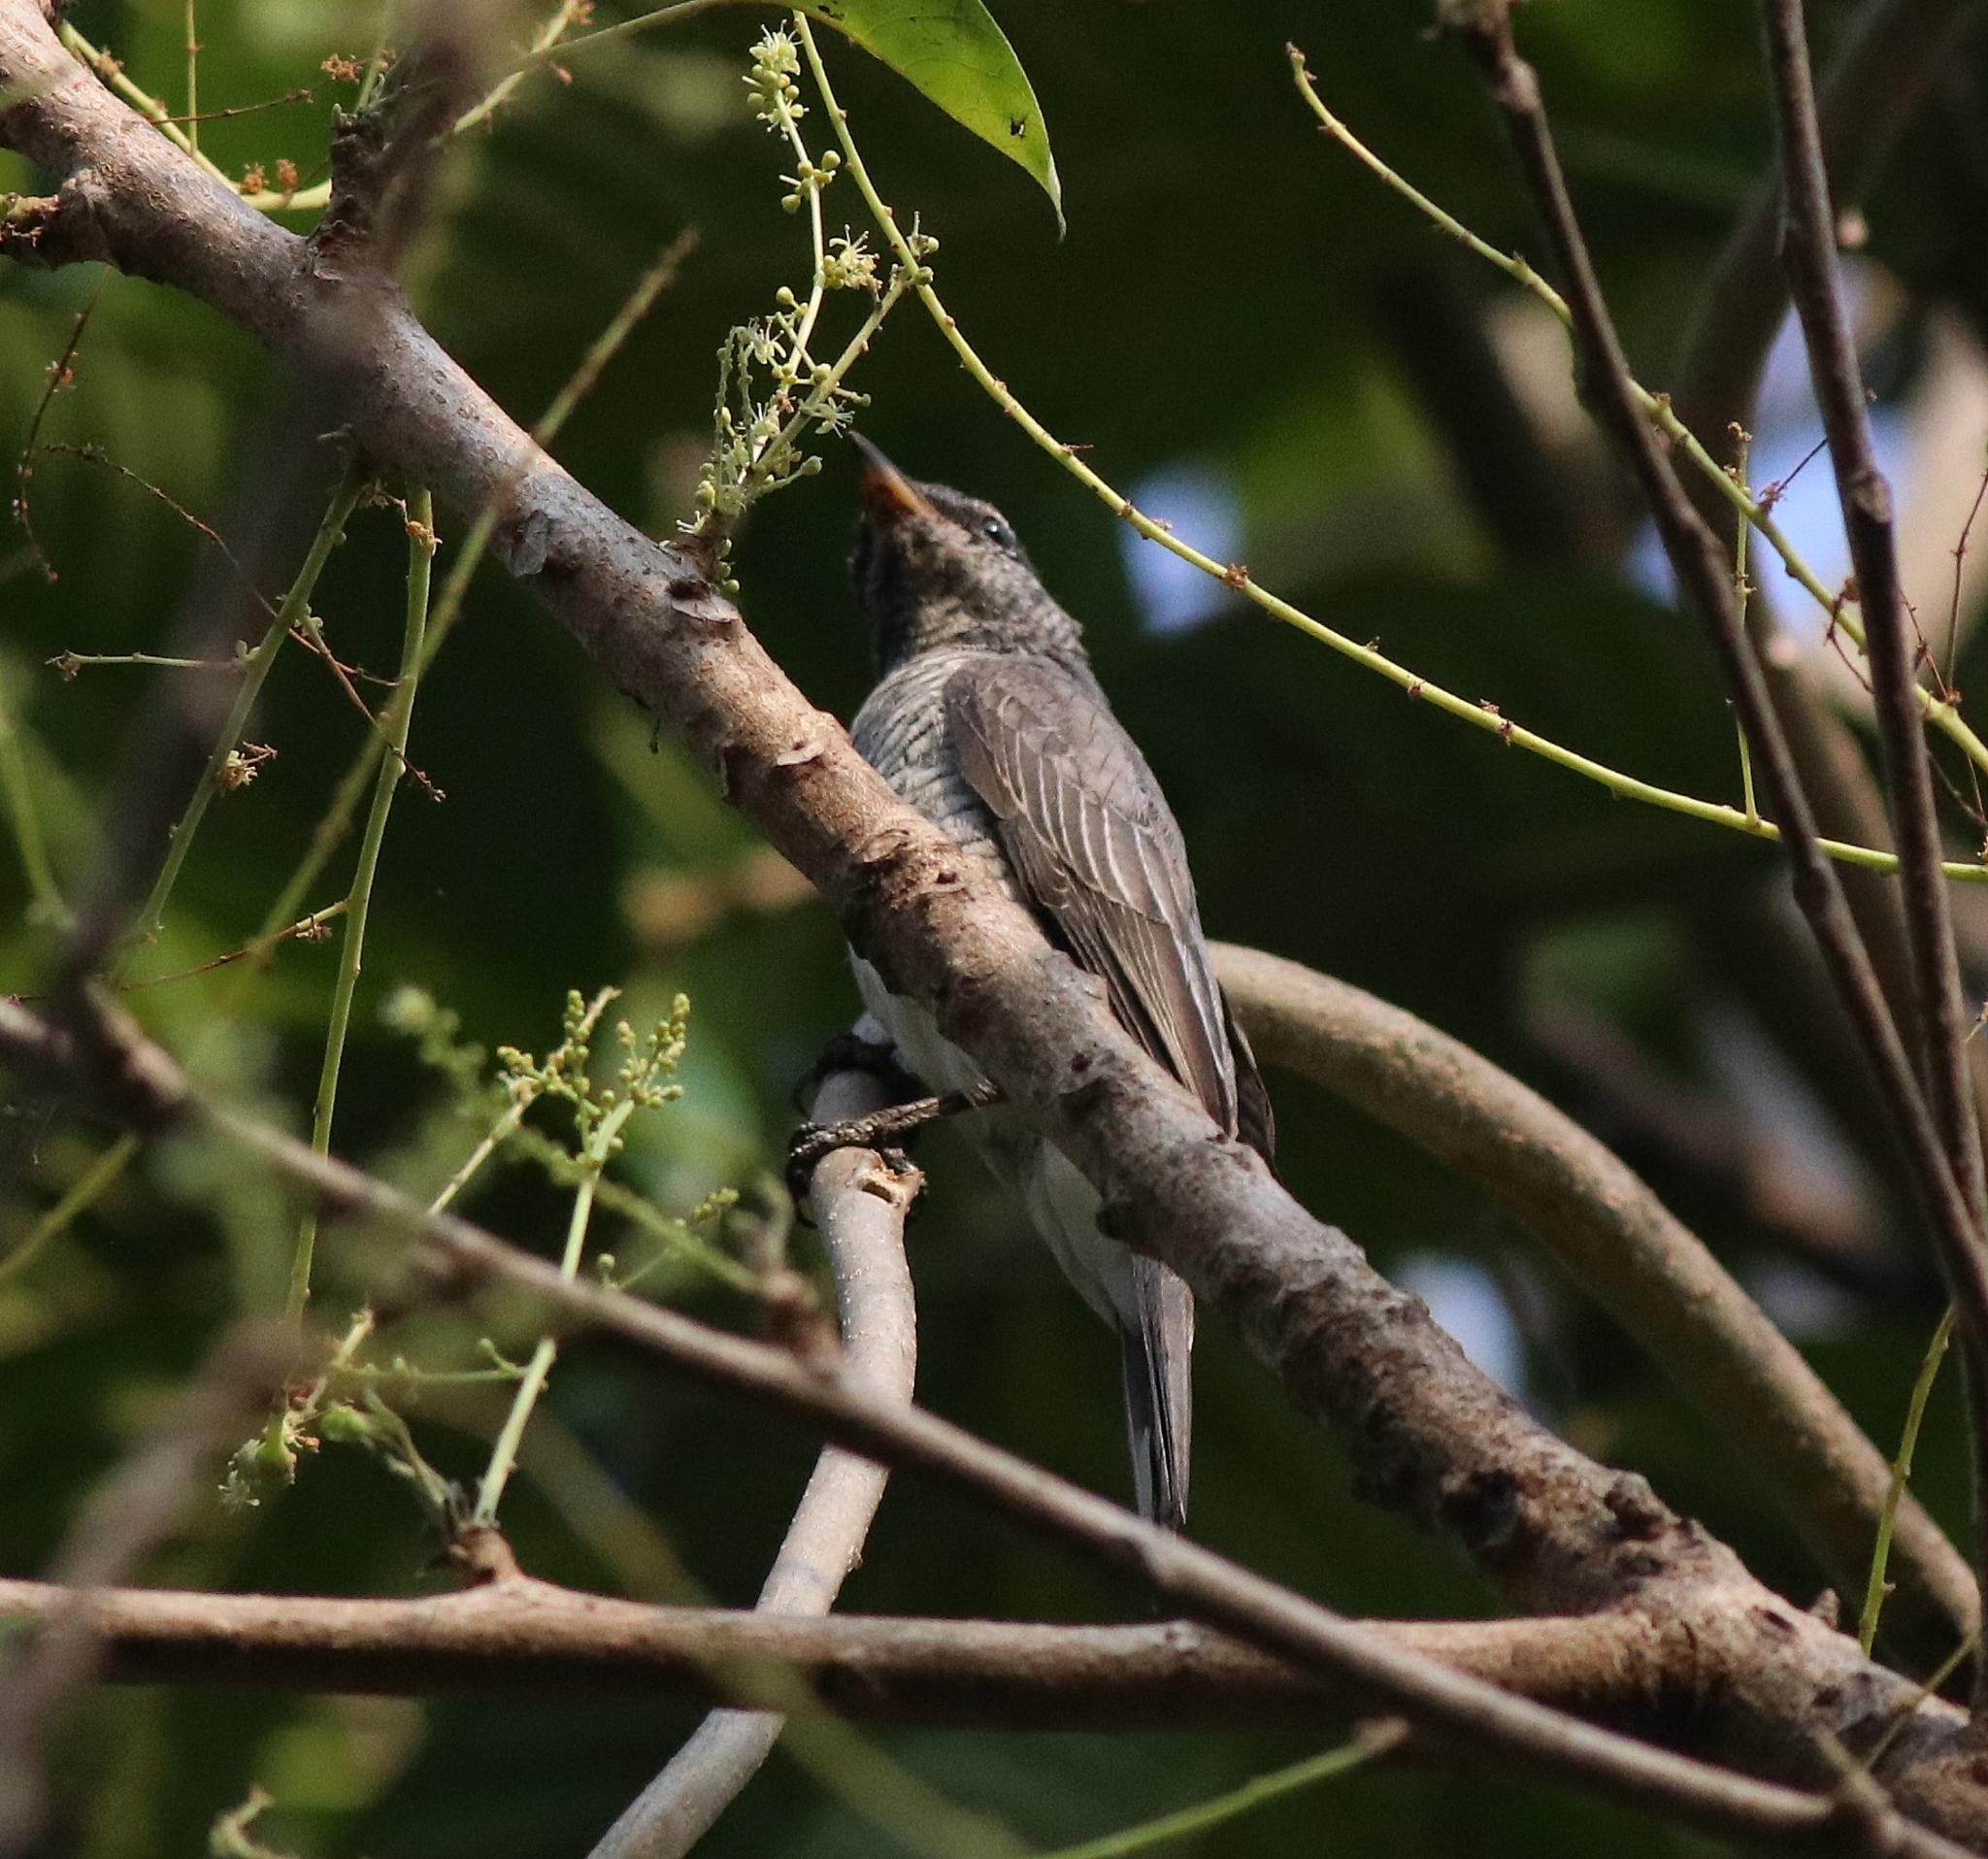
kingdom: Animalia
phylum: Chordata
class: Aves
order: Passeriformes
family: Campephagidae
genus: Coracina
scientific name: Coracina melanoptera
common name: Black-headed cuckooshrike
